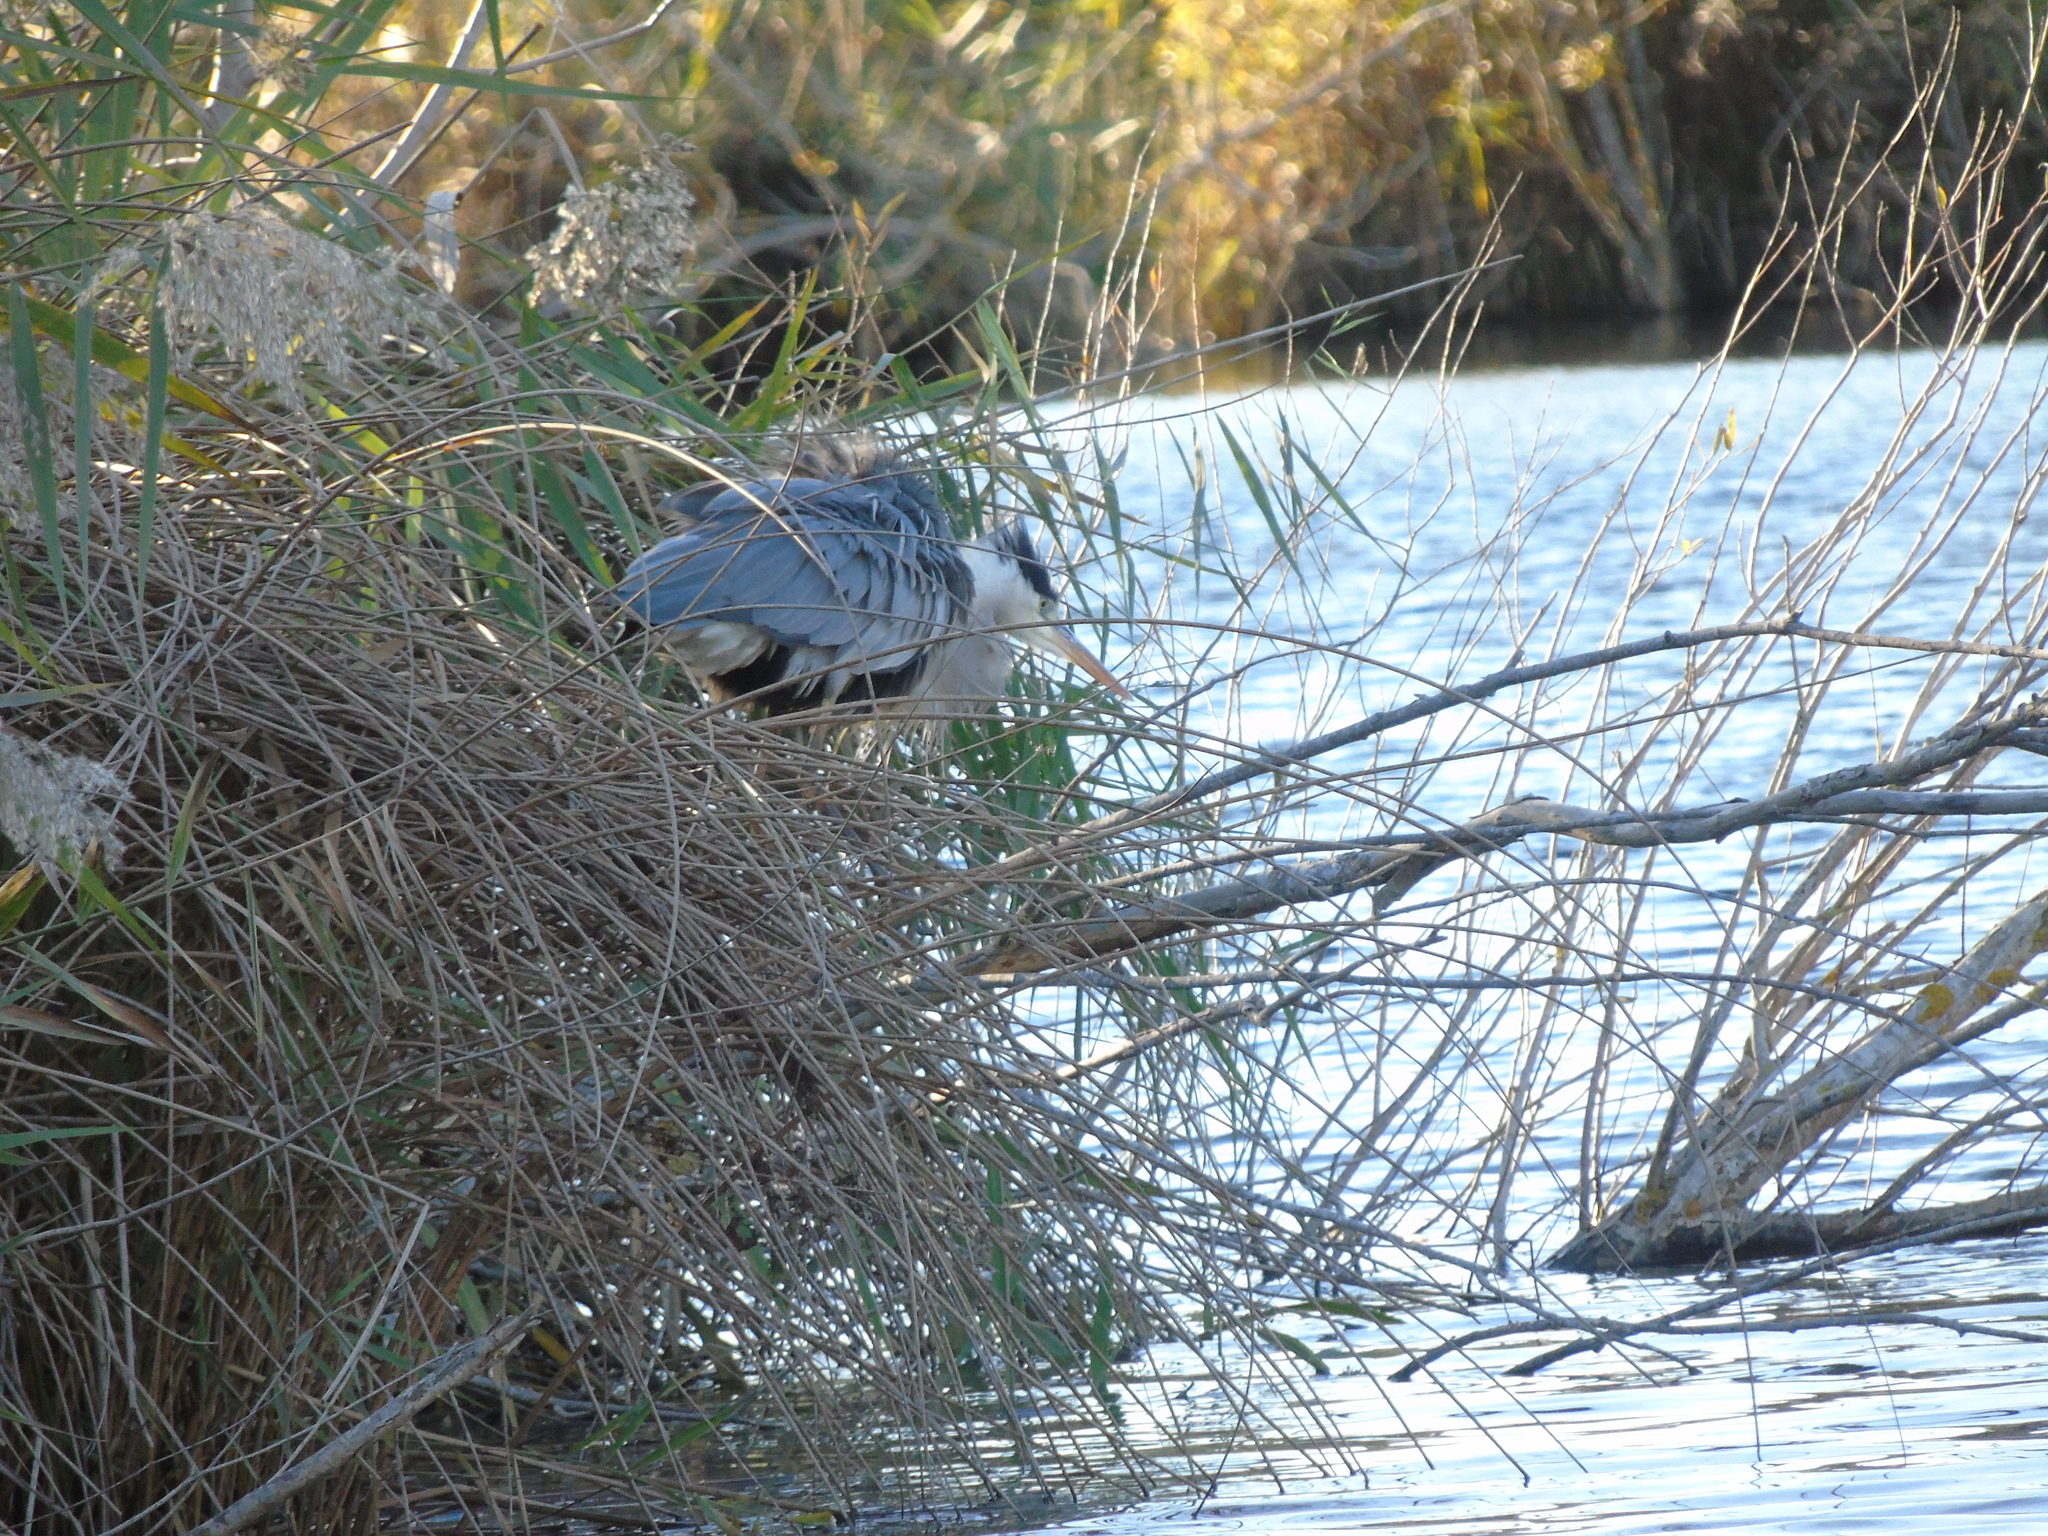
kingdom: Animalia
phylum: Chordata
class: Aves
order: Pelecaniformes
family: Ardeidae
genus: Ardea
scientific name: Ardea cinerea
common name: Grey heron
